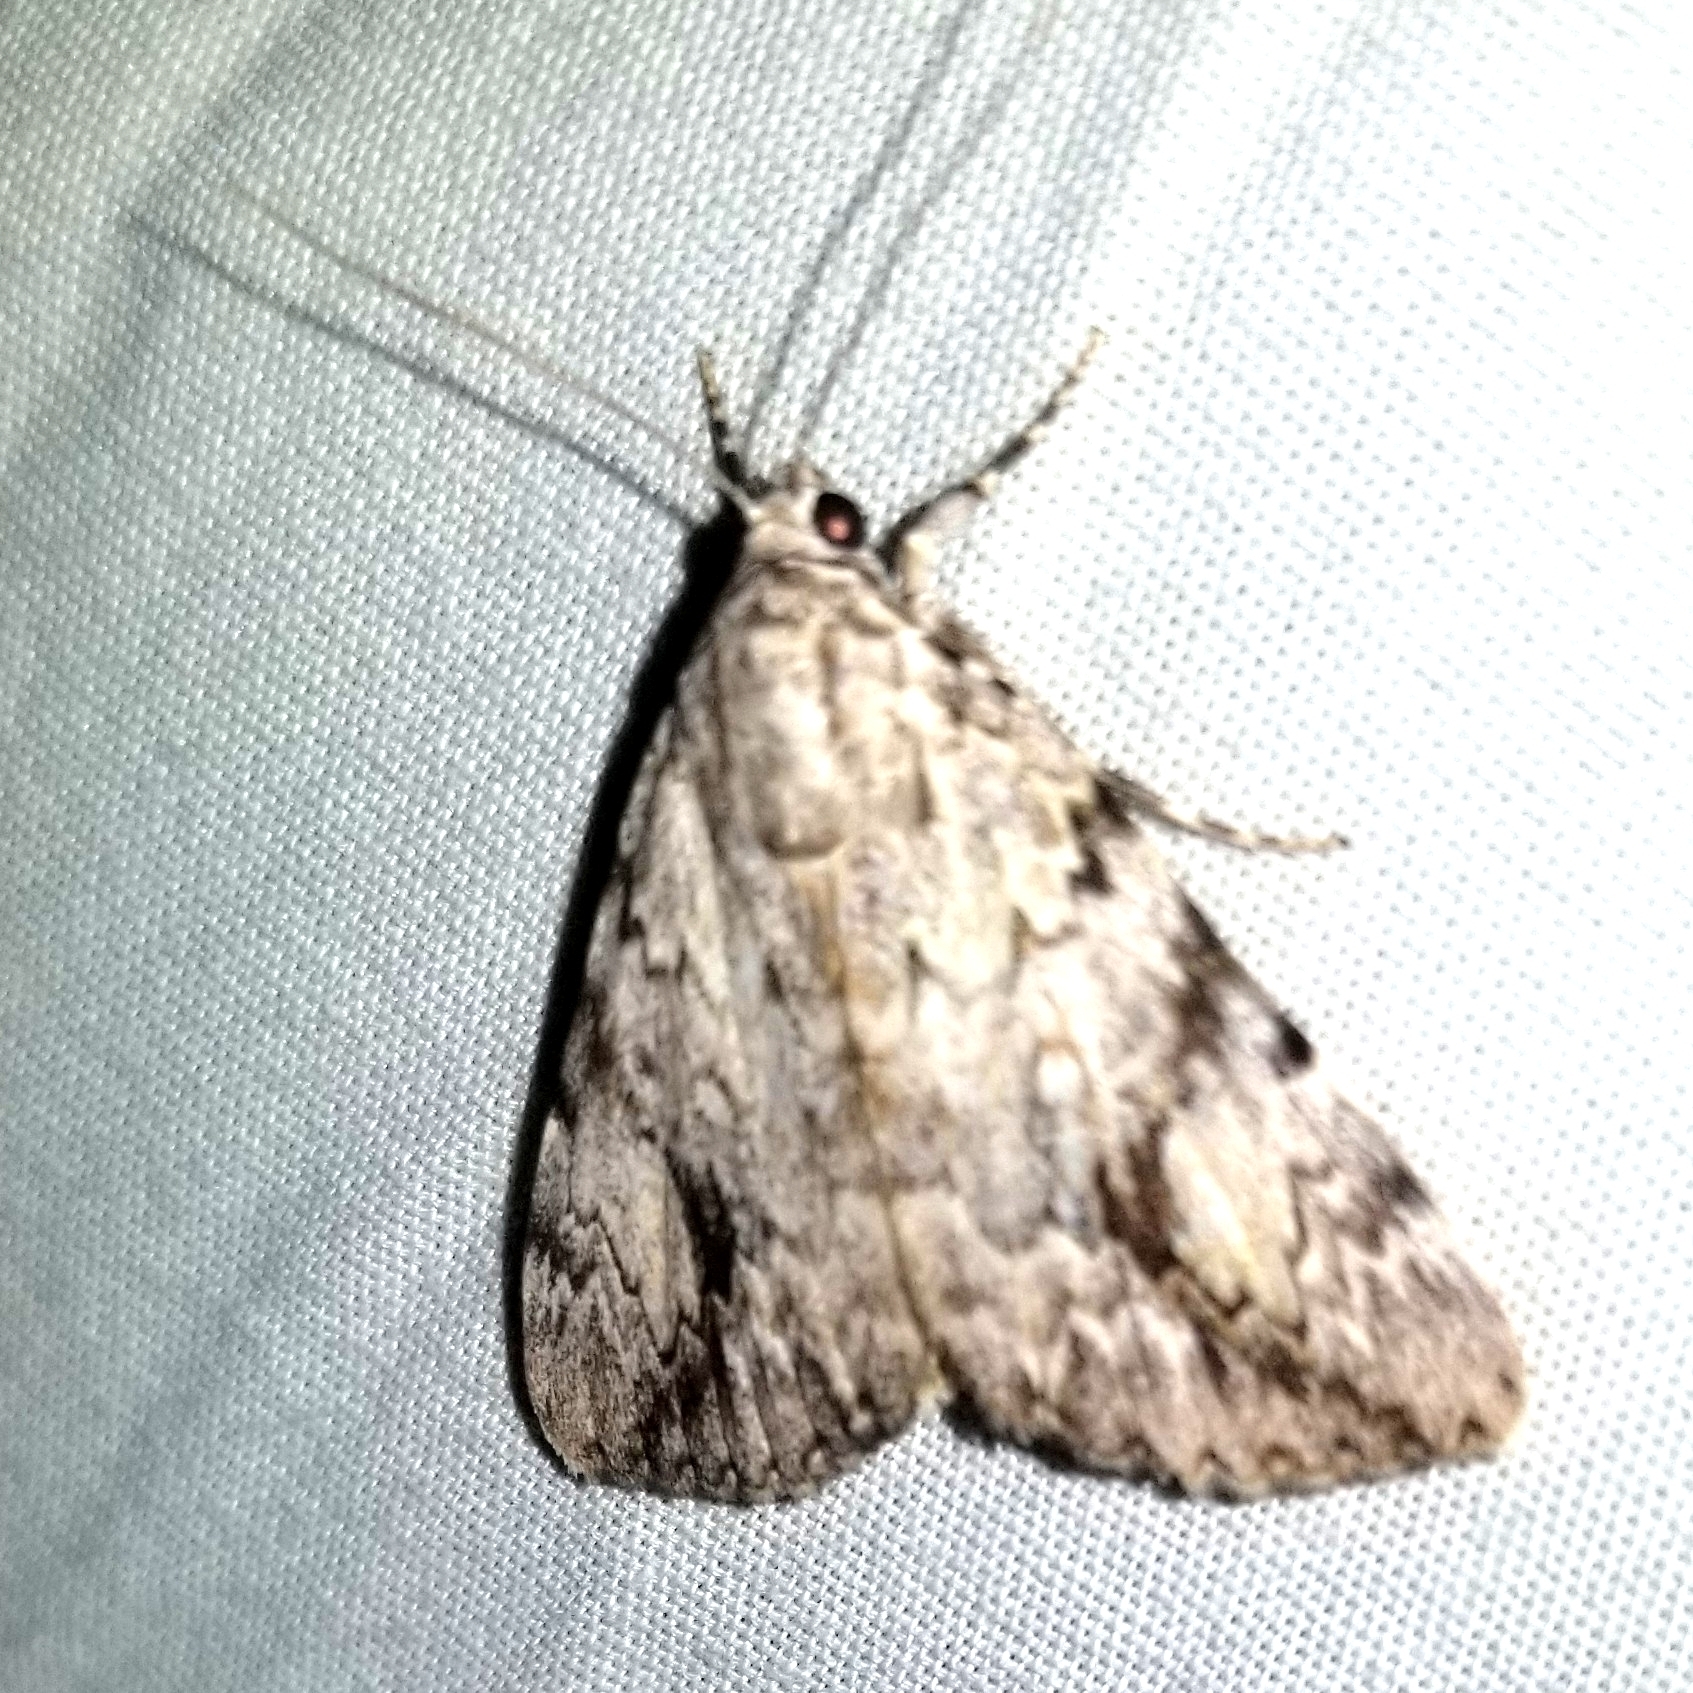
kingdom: Animalia
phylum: Arthropoda
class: Insecta
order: Lepidoptera
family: Erebidae
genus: Catocala
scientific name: Catocala amica
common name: Girlfriend underwing
